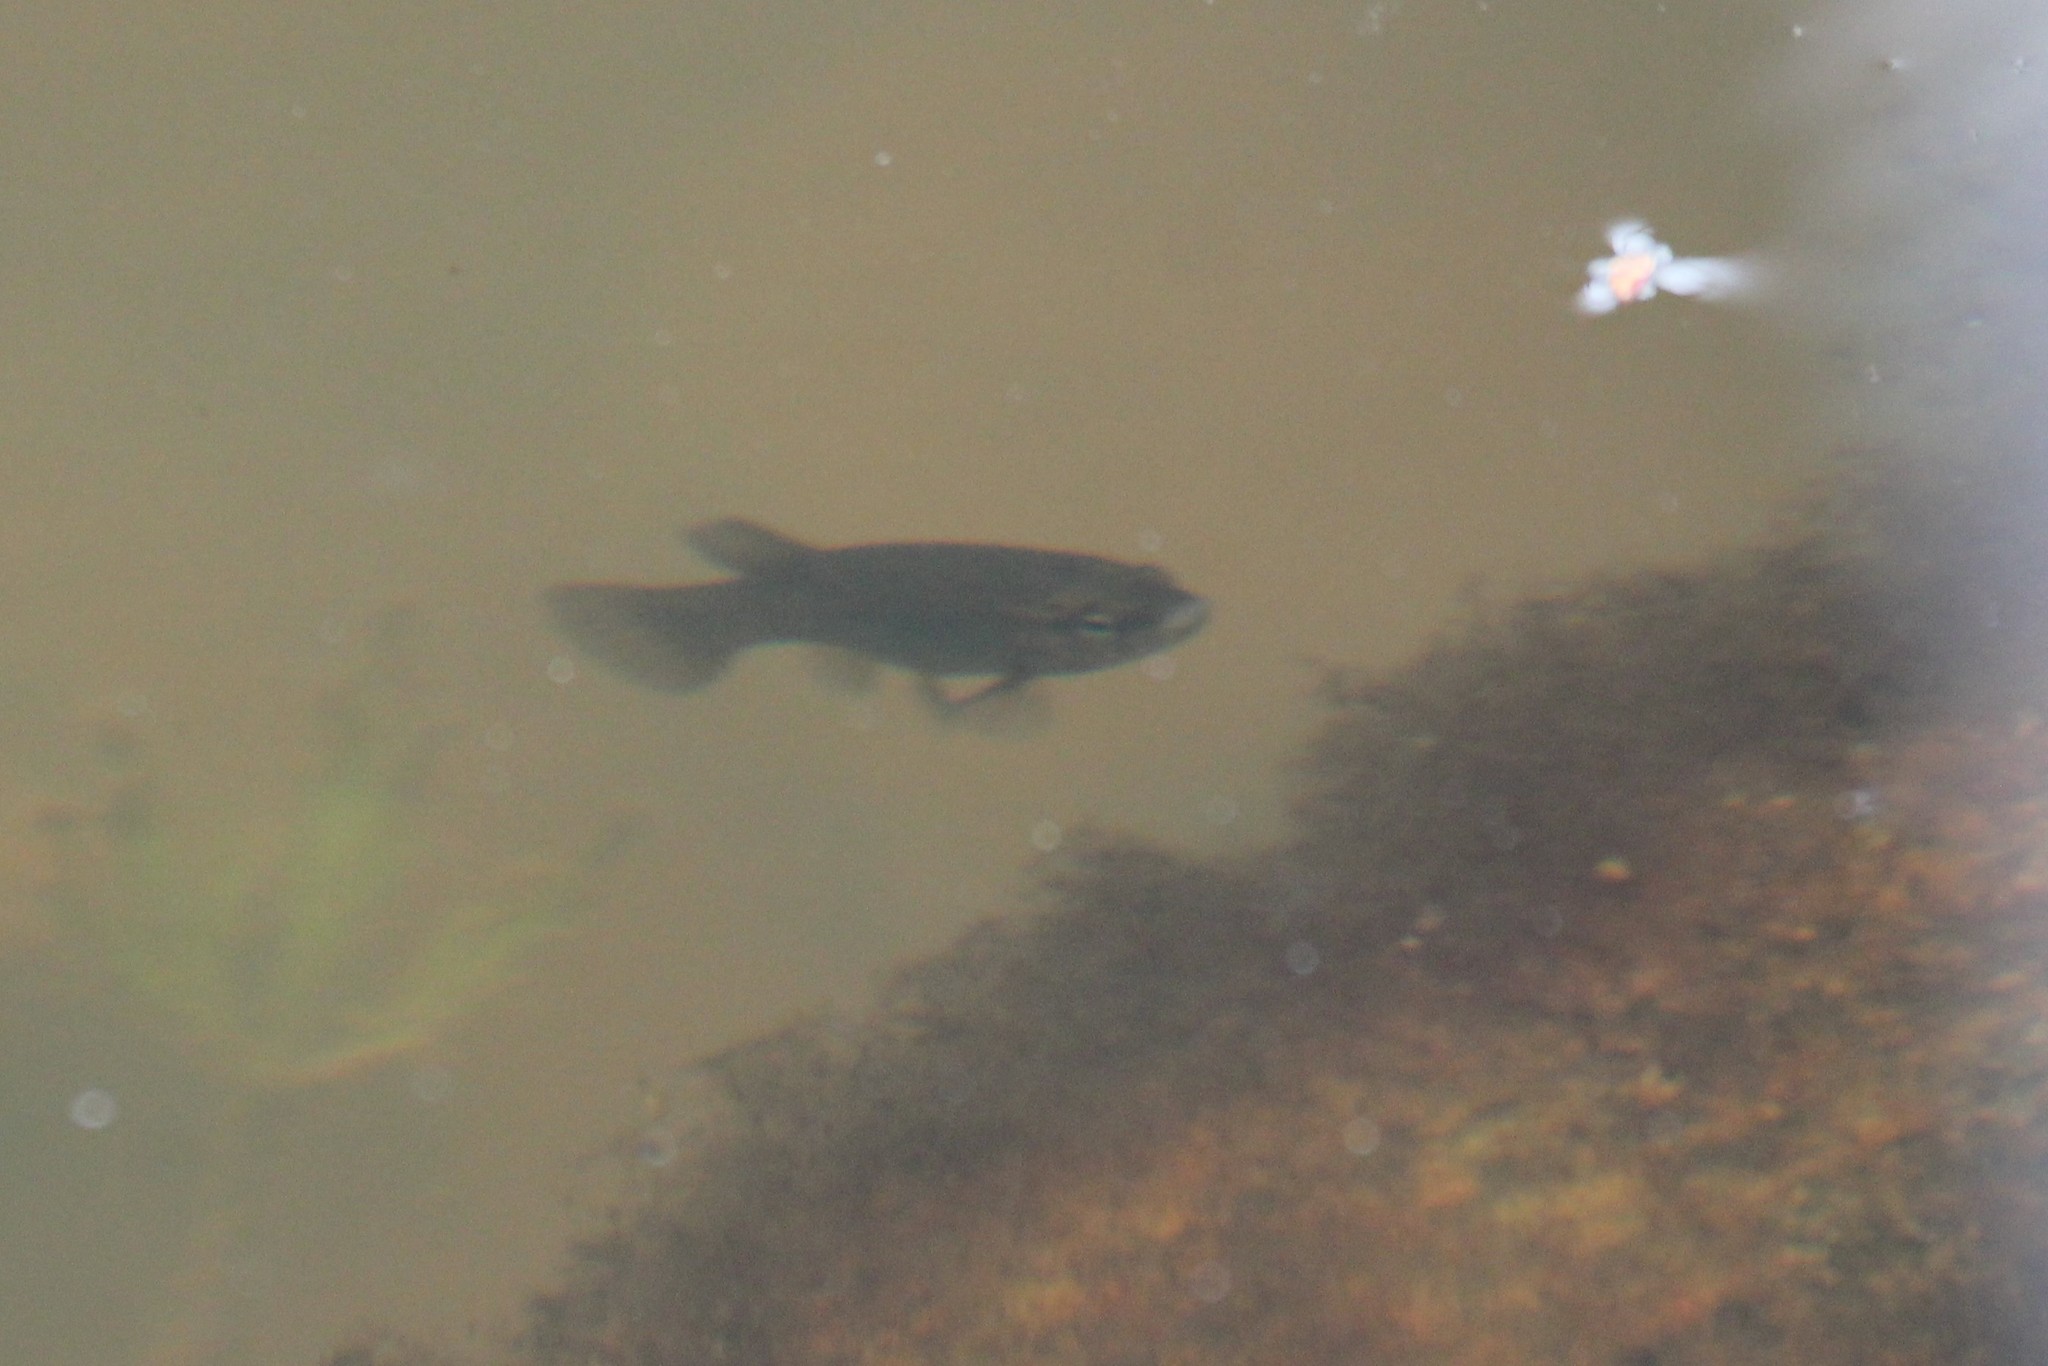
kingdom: Animalia
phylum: Chordata
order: Esociformes
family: Umbridae
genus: Umbra
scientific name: Umbra limi
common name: Central mudminnow
